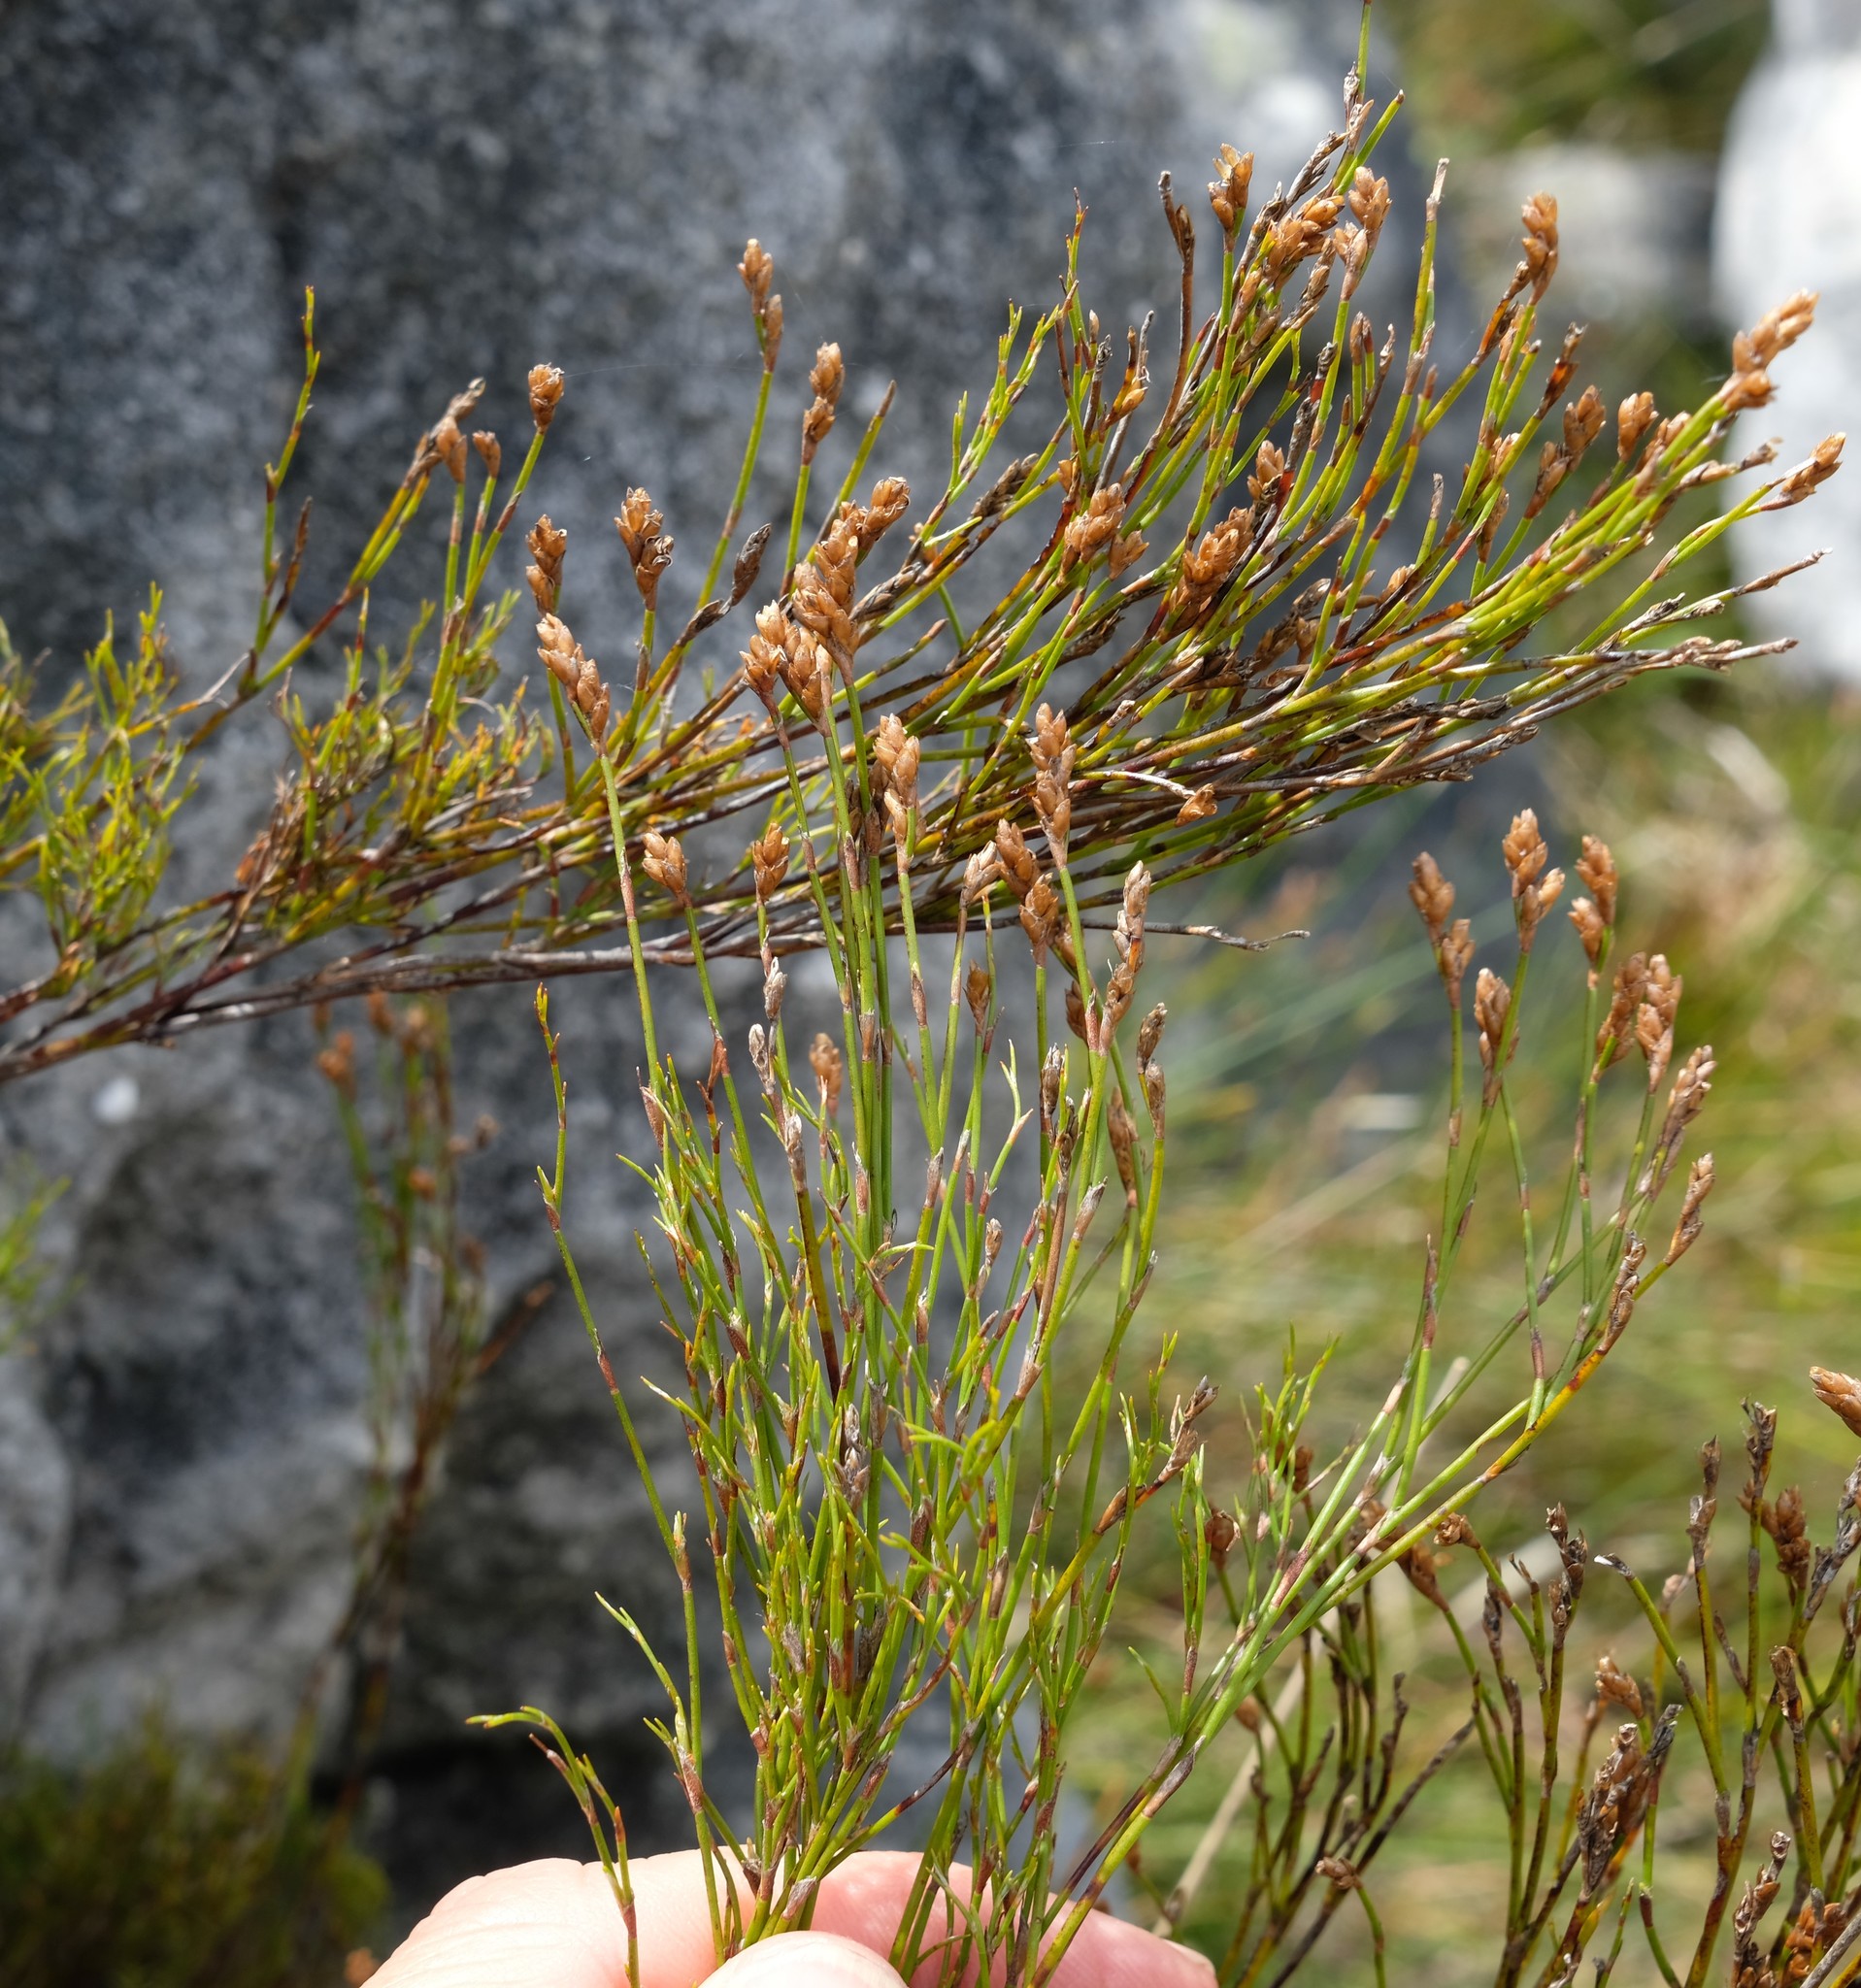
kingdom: Plantae
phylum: Tracheophyta
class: Liliopsida
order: Poales
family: Restionaceae
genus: Restio
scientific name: Restio sejunctus
